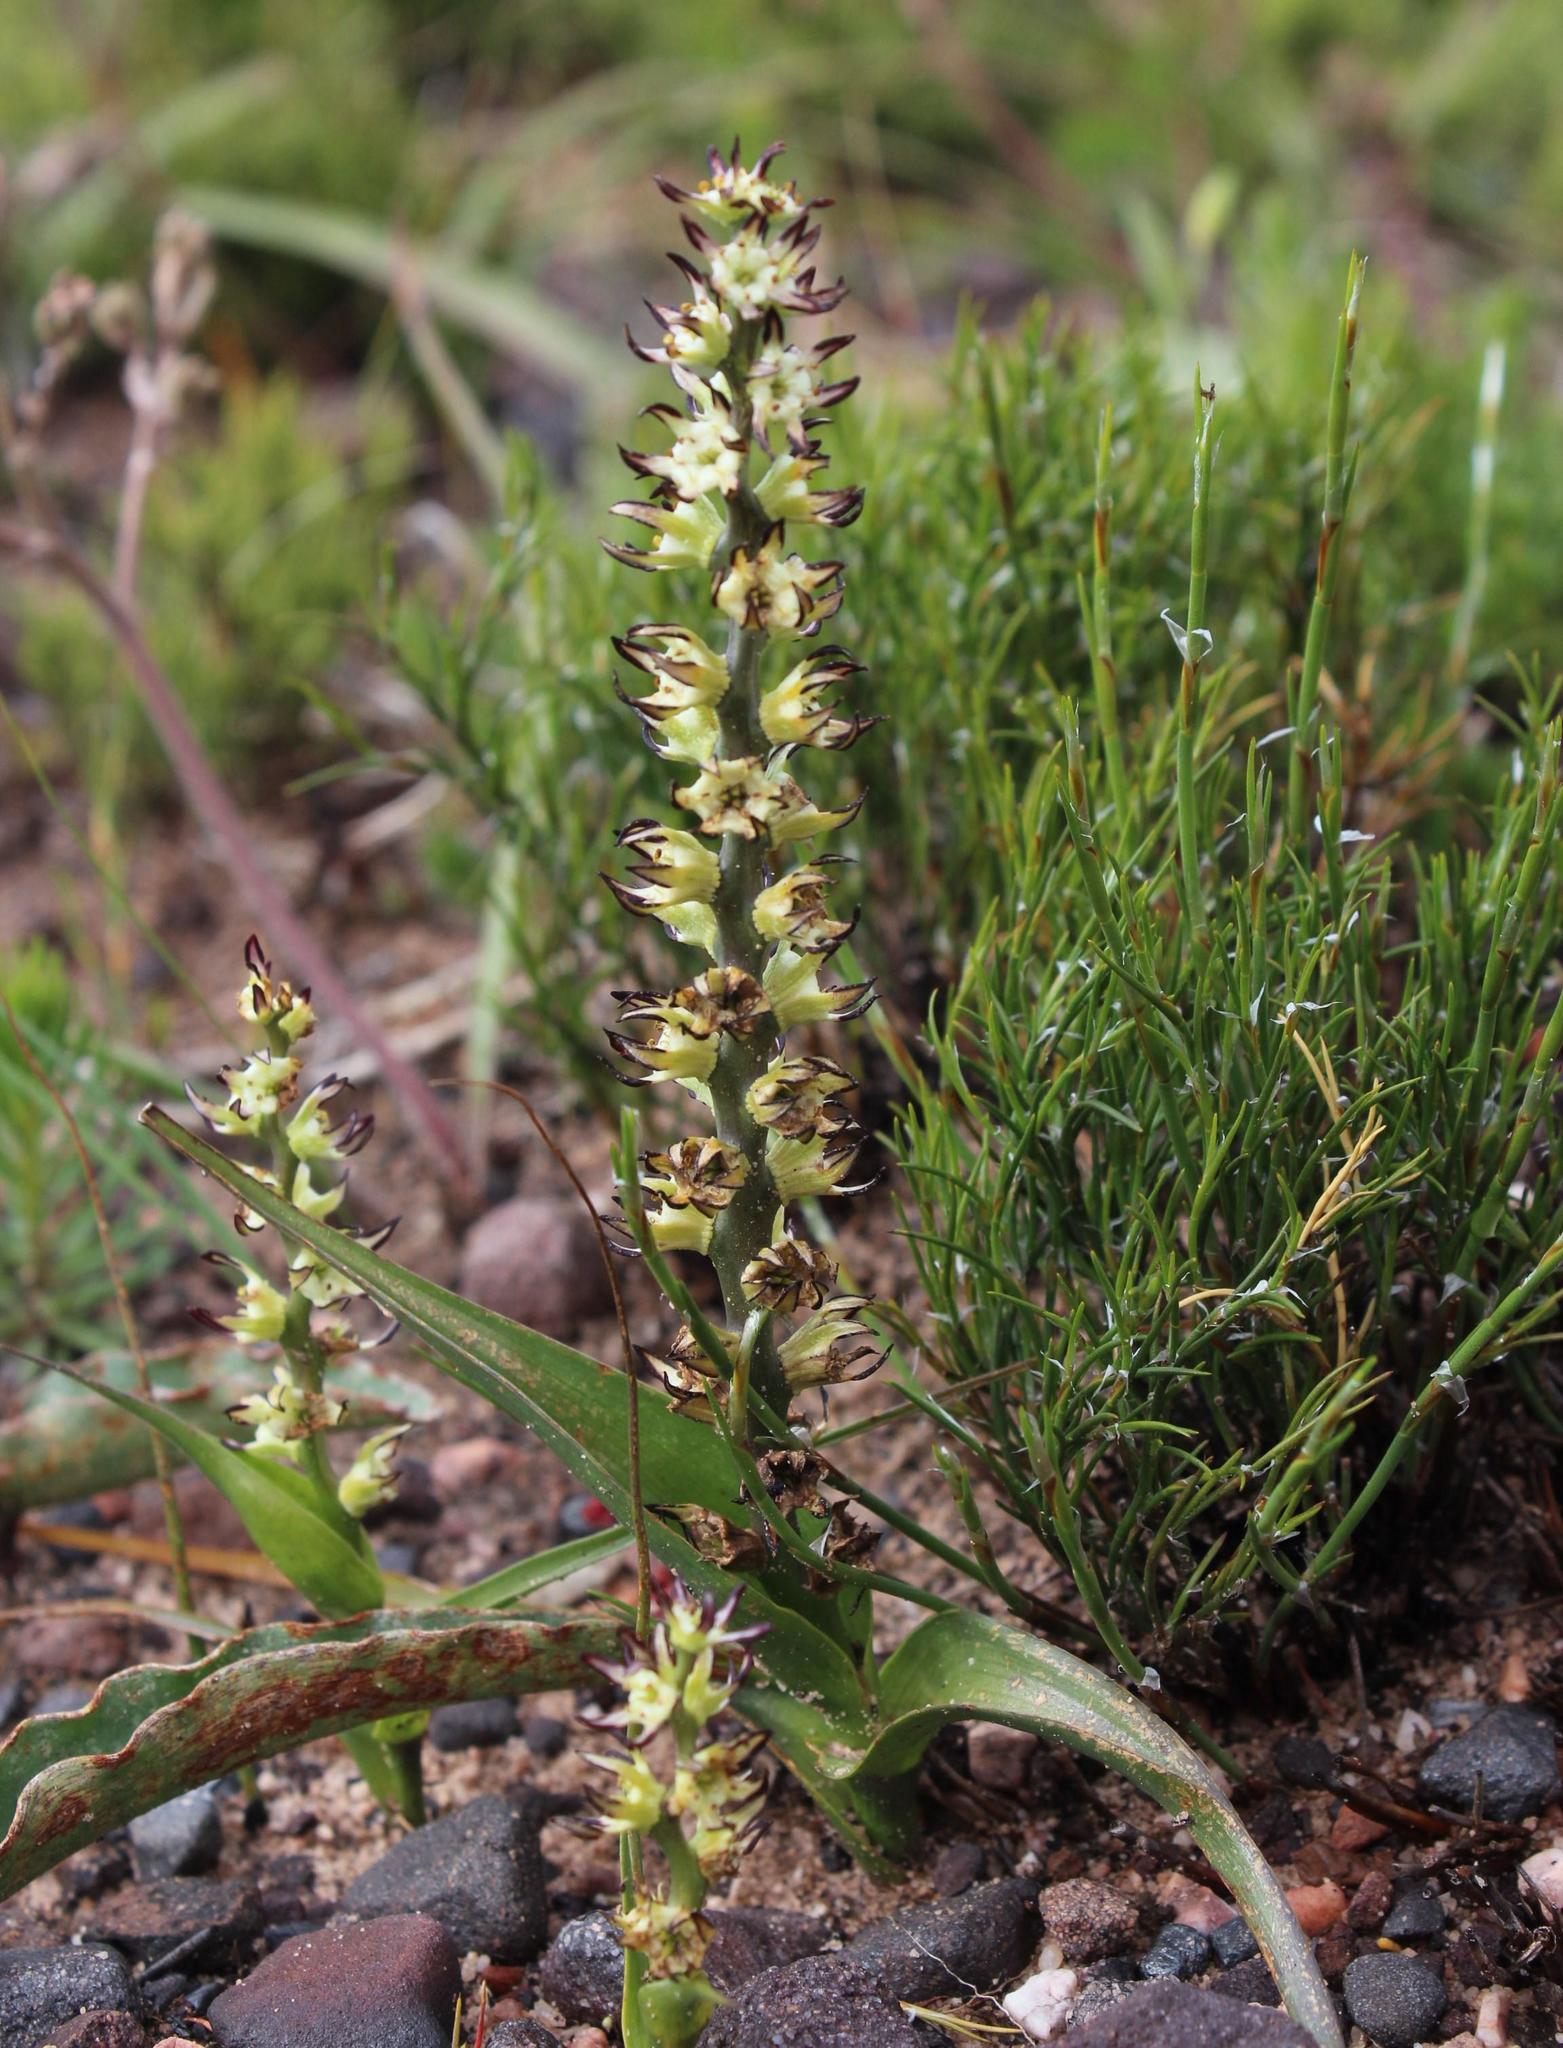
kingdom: Plantae
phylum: Tracheophyta
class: Liliopsida
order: Liliales
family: Colchicaceae
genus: Wurmbea
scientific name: Wurmbea spicata
